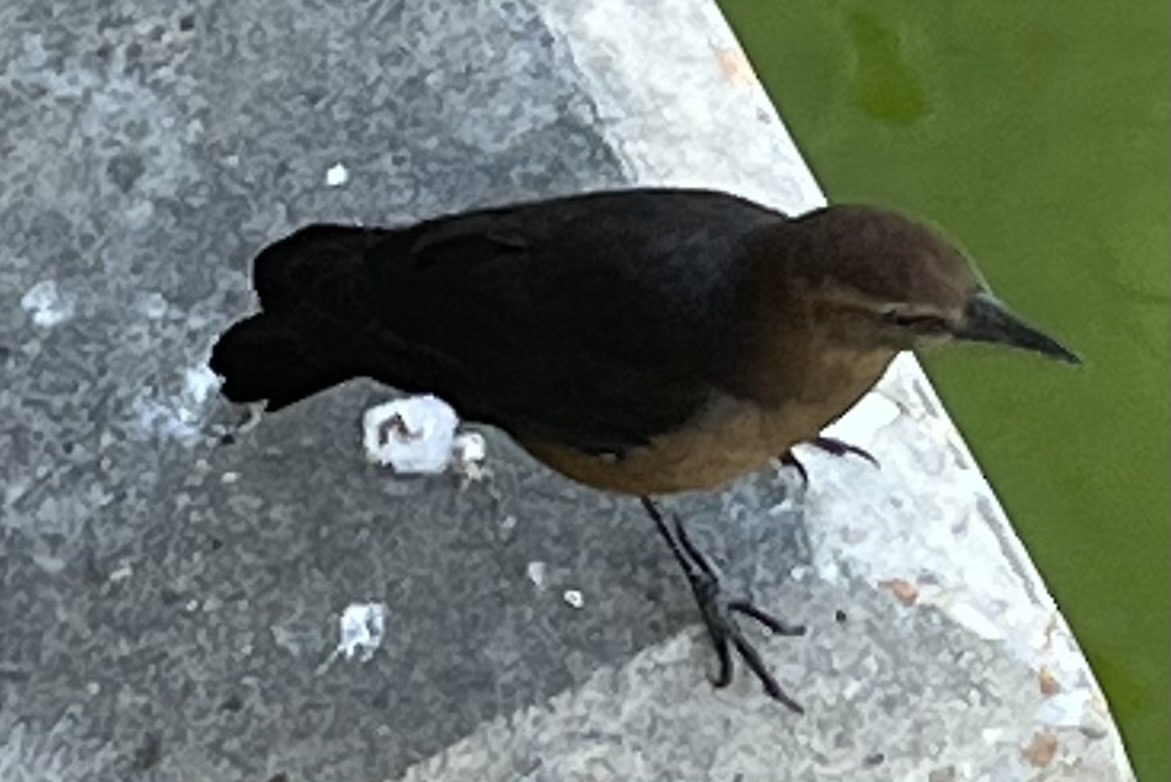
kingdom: Animalia
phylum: Chordata
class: Aves
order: Passeriformes
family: Icteridae
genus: Quiscalus
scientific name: Quiscalus major
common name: Boat-tailed grackle
